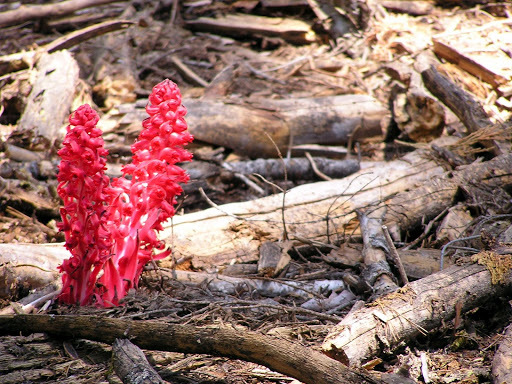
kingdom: Plantae
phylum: Tracheophyta
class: Magnoliopsida
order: Ericales
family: Ericaceae
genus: Sarcodes
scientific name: Sarcodes sanguinea
